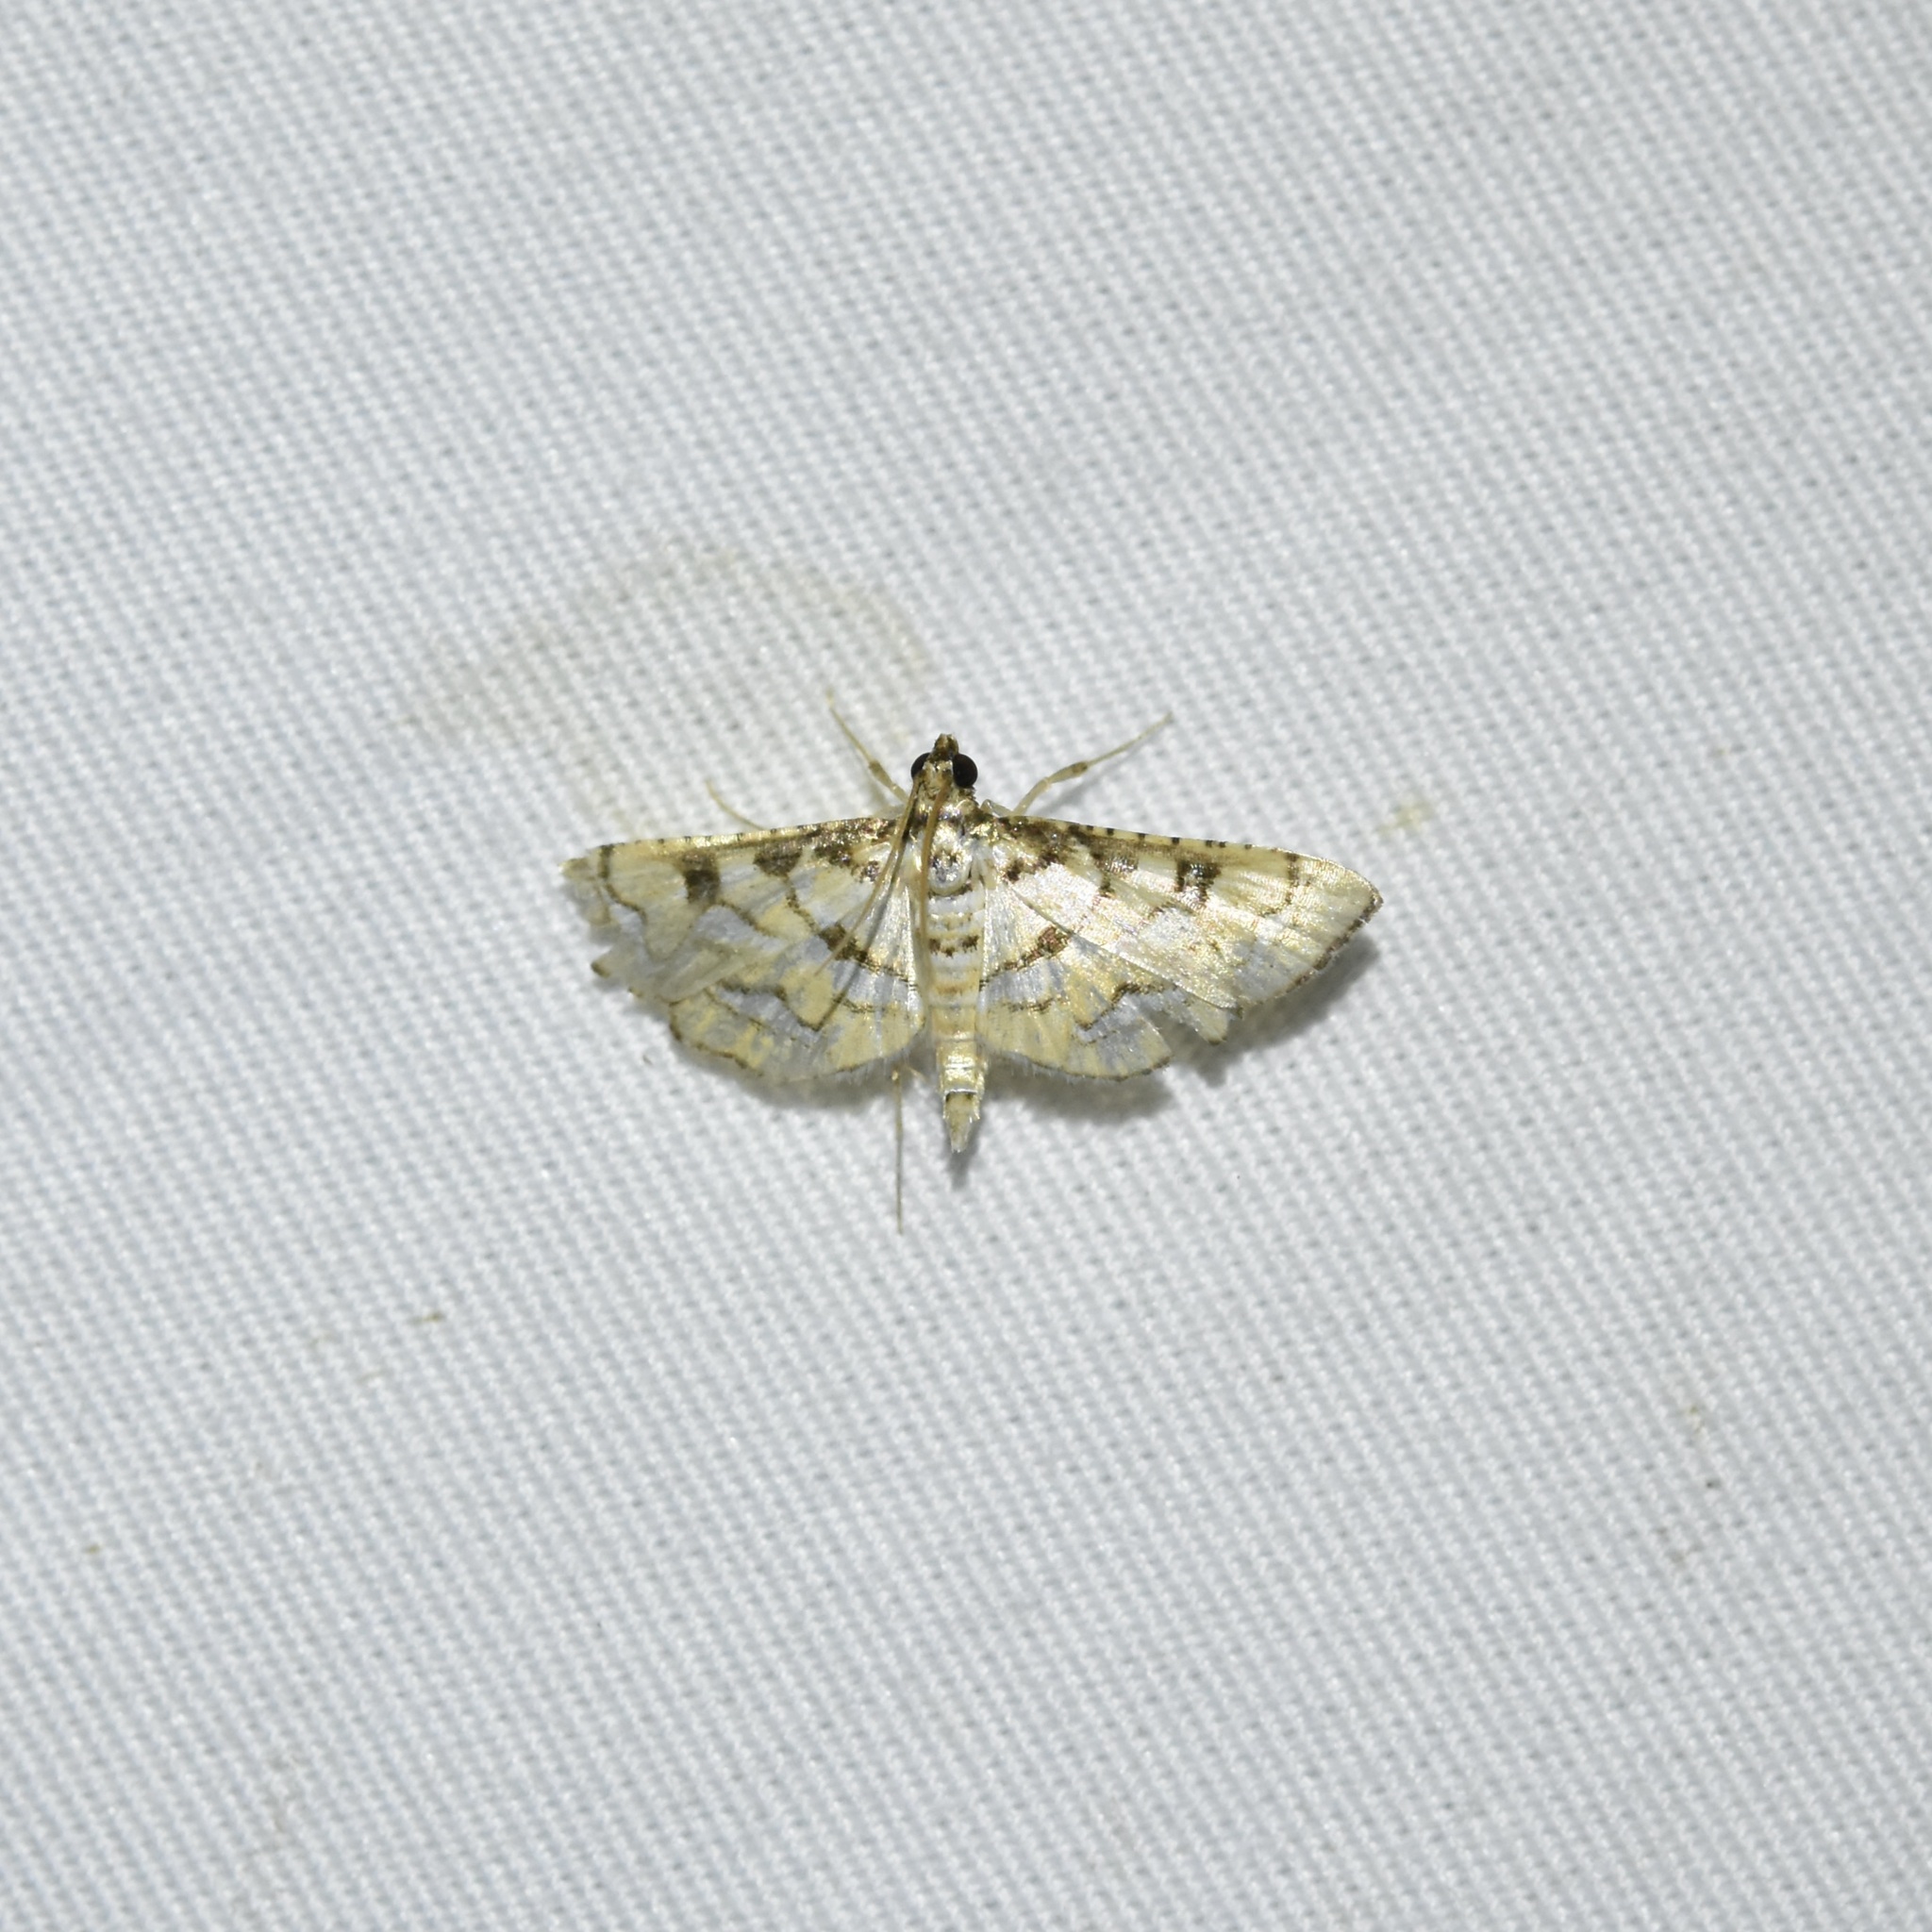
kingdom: Animalia
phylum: Arthropoda
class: Insecta
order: Lepidoptera
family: Crambidae
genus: Hileithia
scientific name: Hileithia magualis
